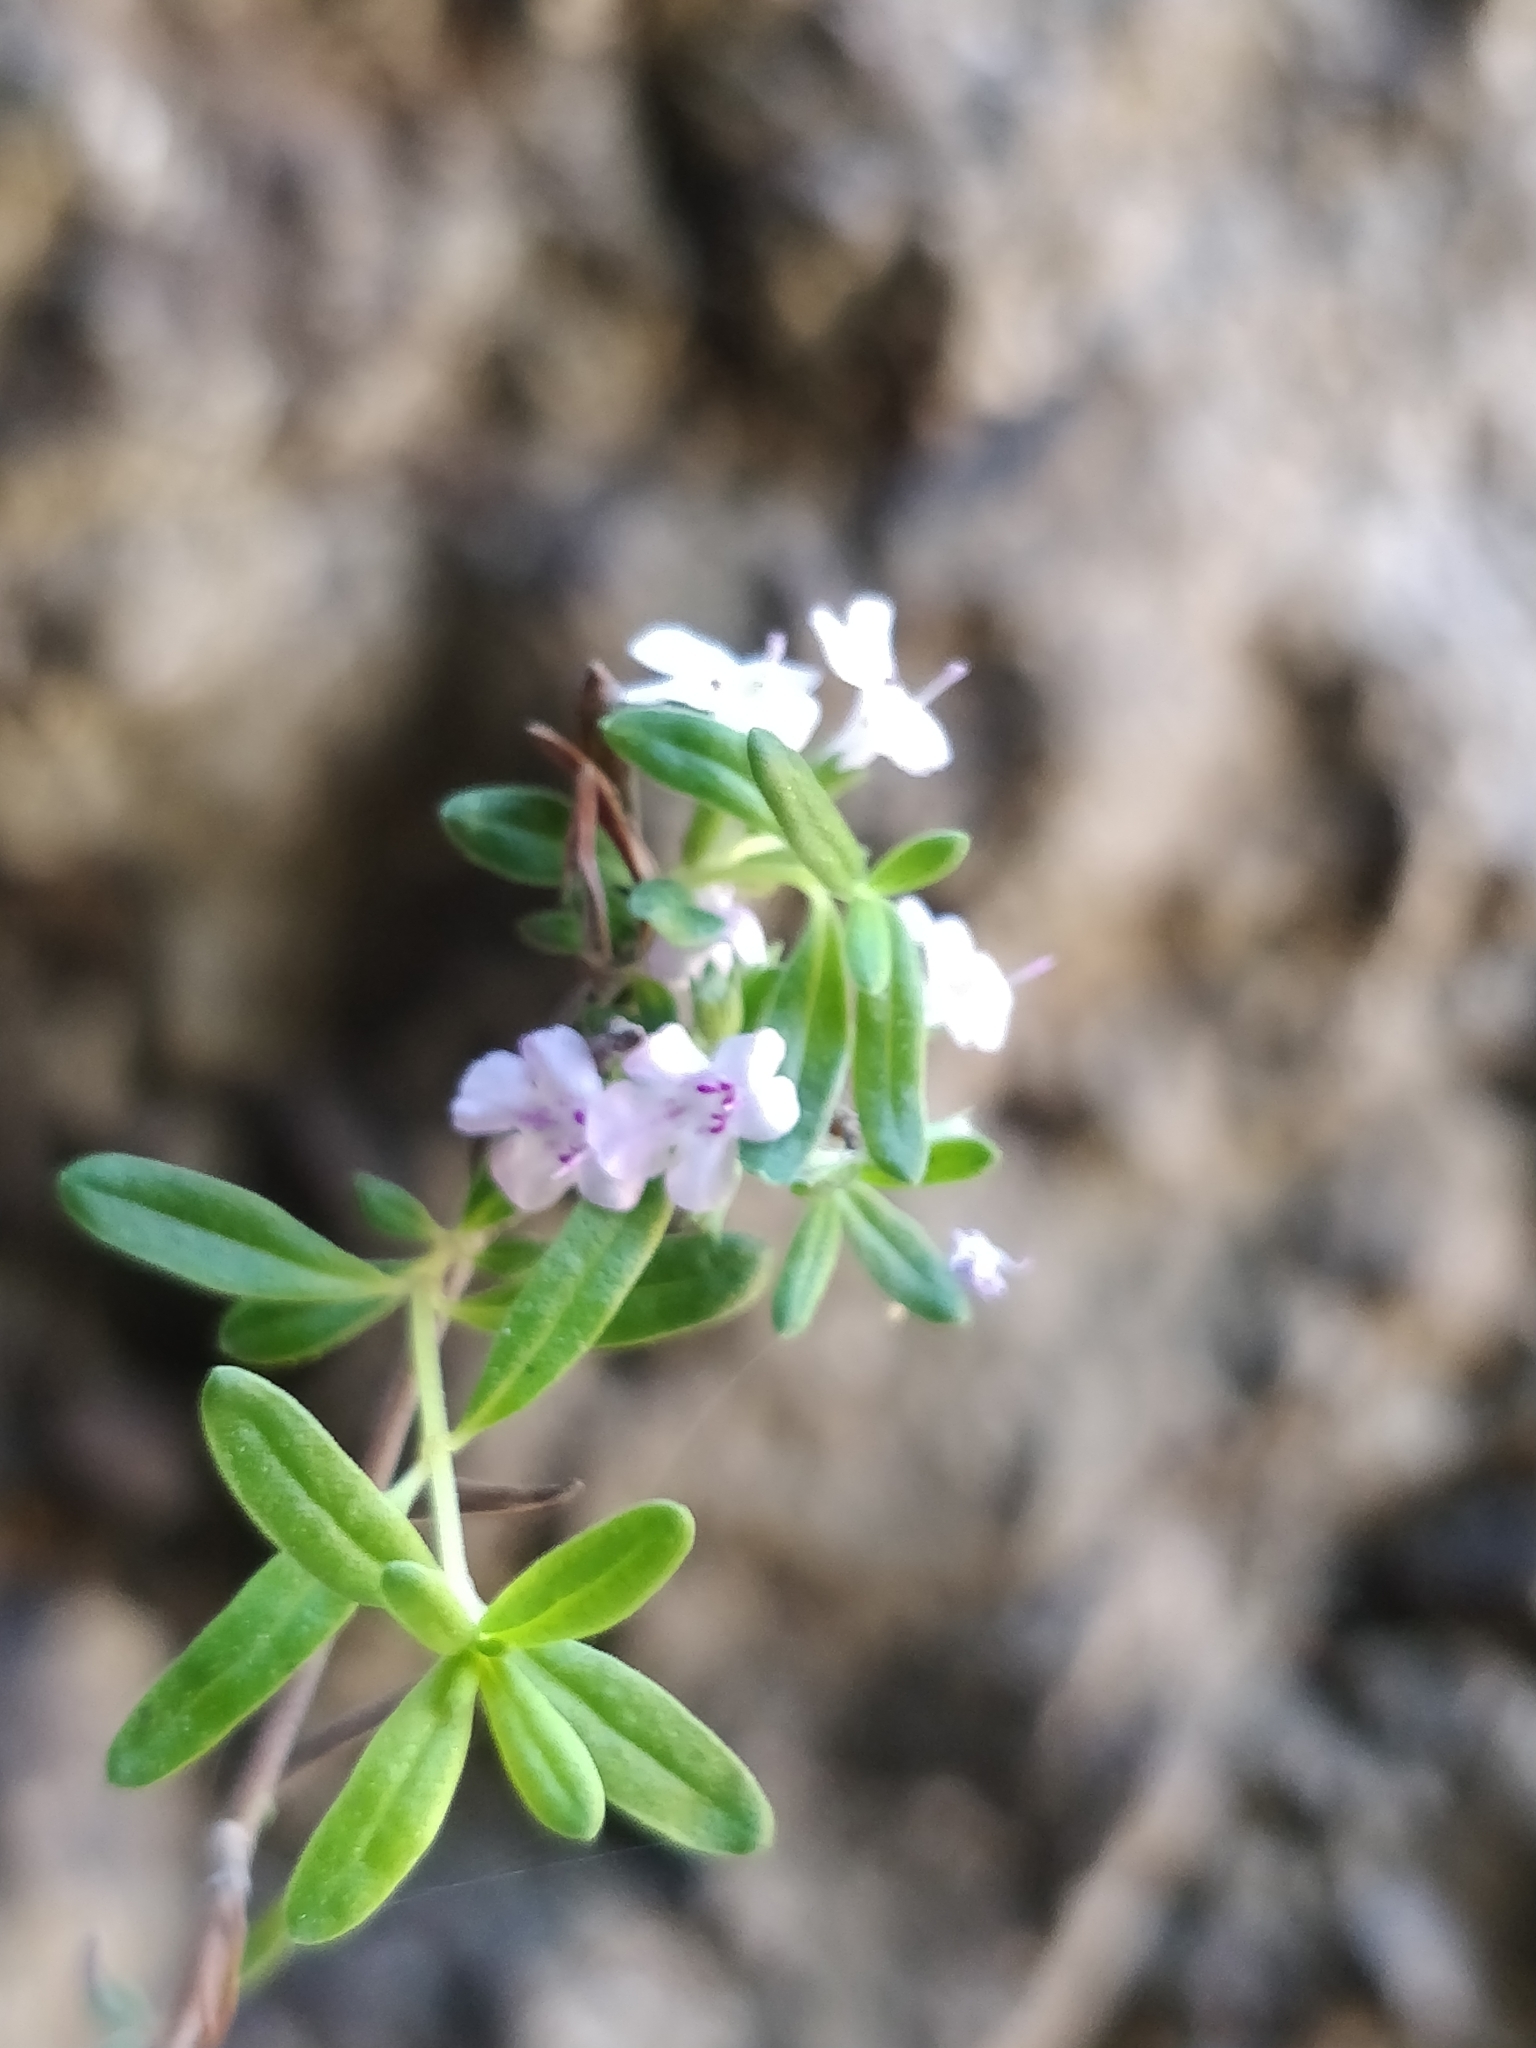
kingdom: Plantae
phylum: Tracheophyta
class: Magnoliopsida
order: Lamiales
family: Lamiaceae
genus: Micromeria
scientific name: Micromeria maderensis
